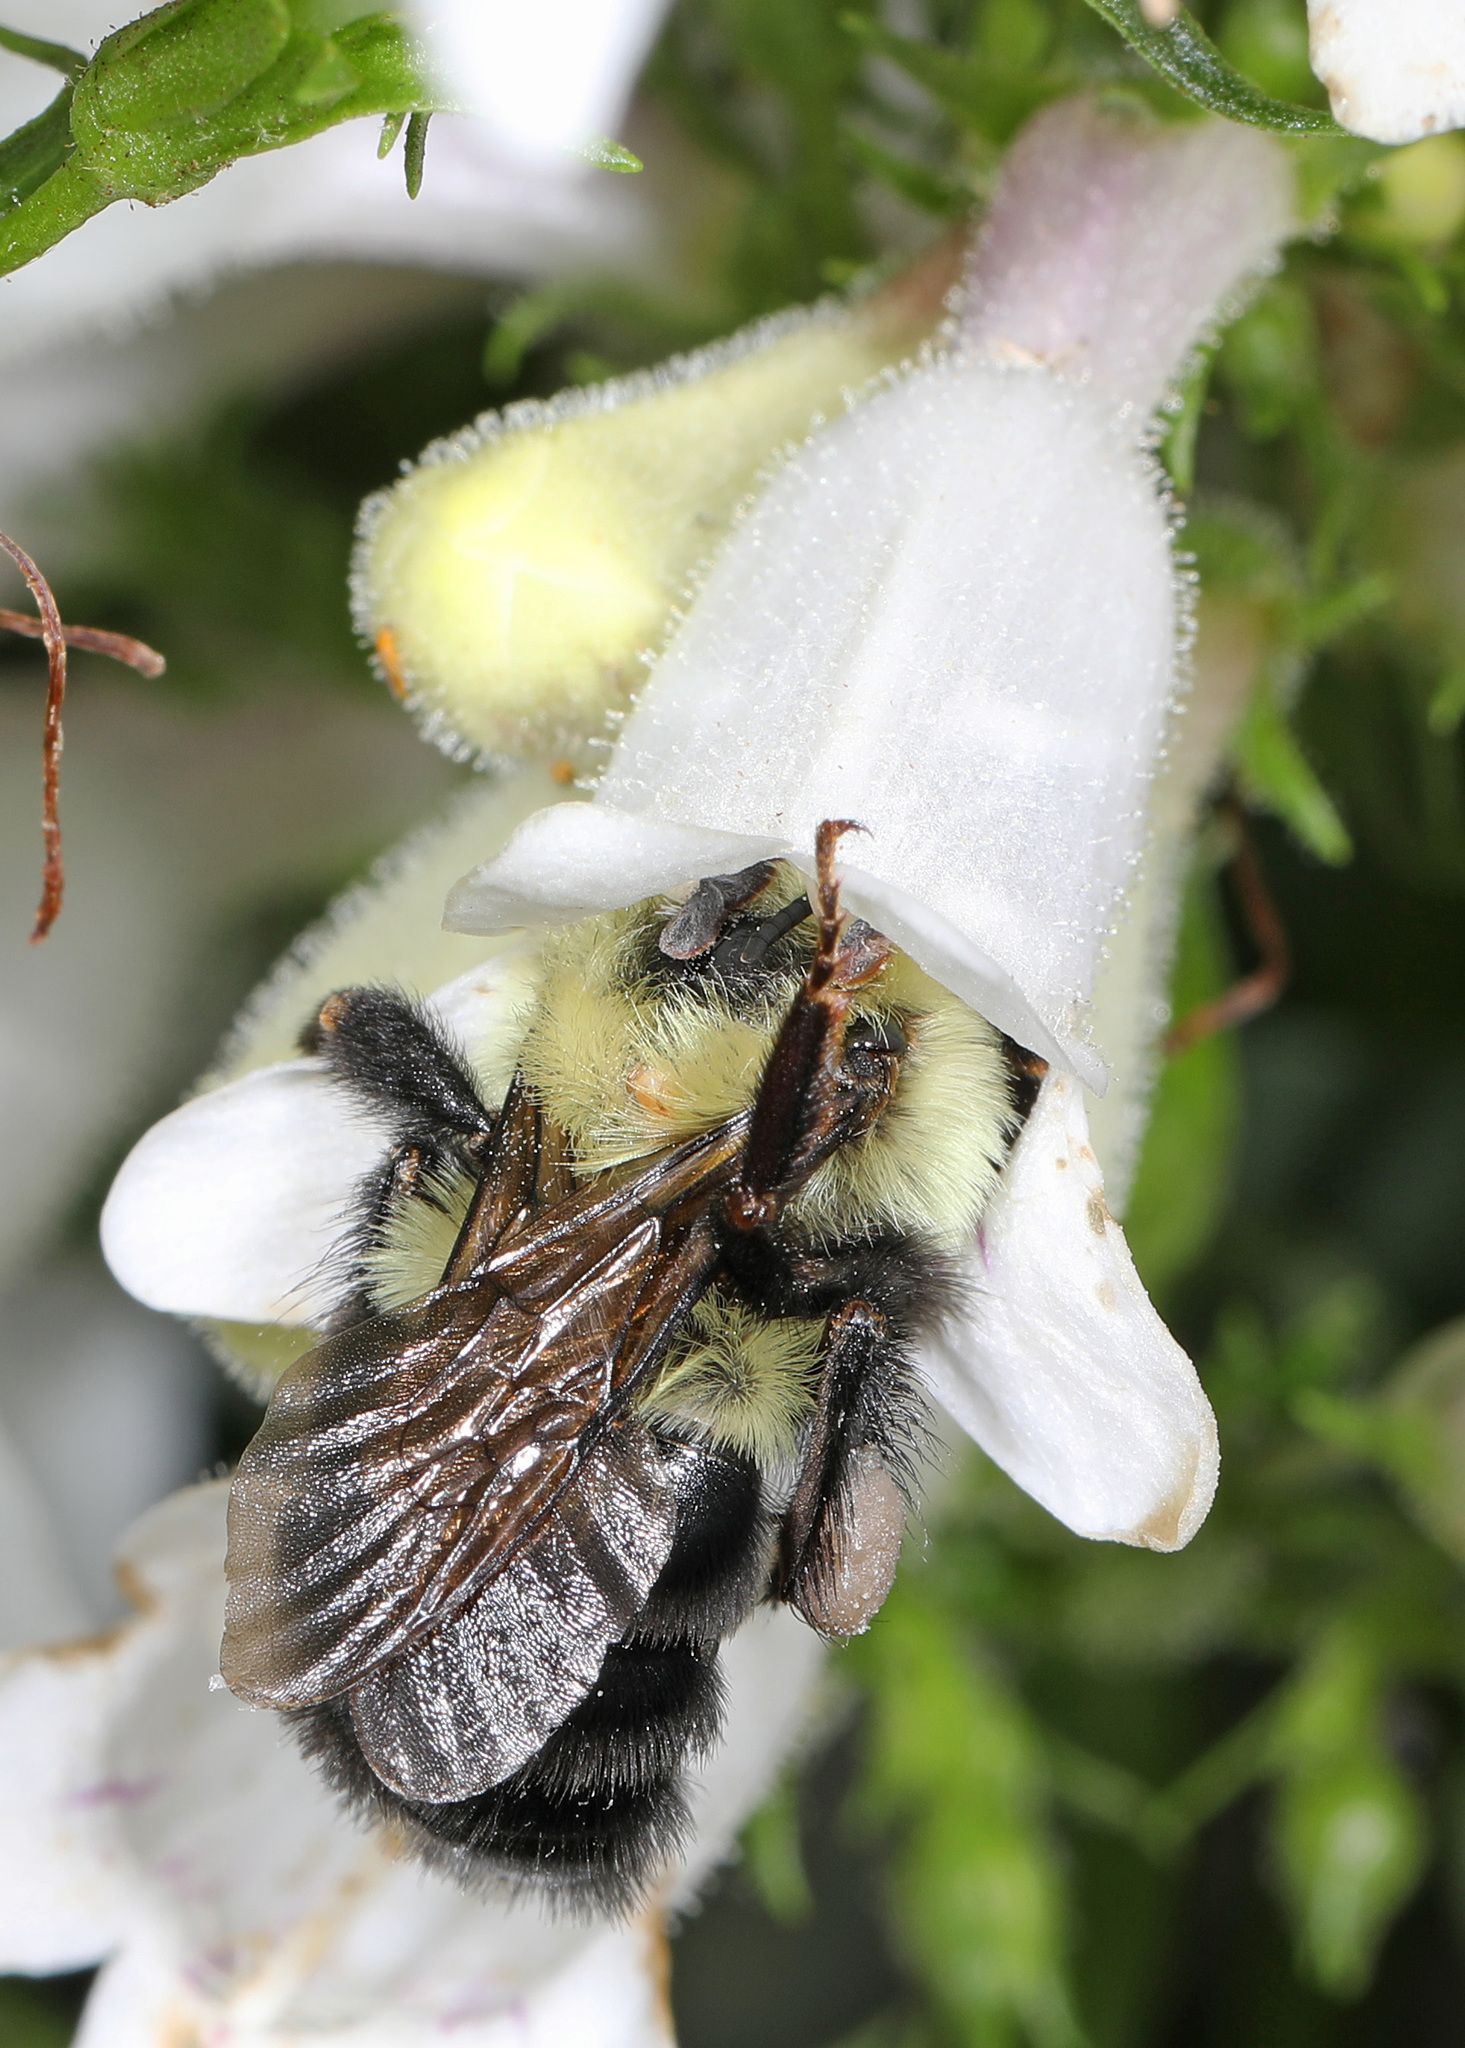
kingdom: Animalia
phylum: Arthropoda
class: Insecta
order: Hymenoptera
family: Apidae
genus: Bombus
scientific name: Bombus bimaculatus
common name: Two-spotted bumble bee
